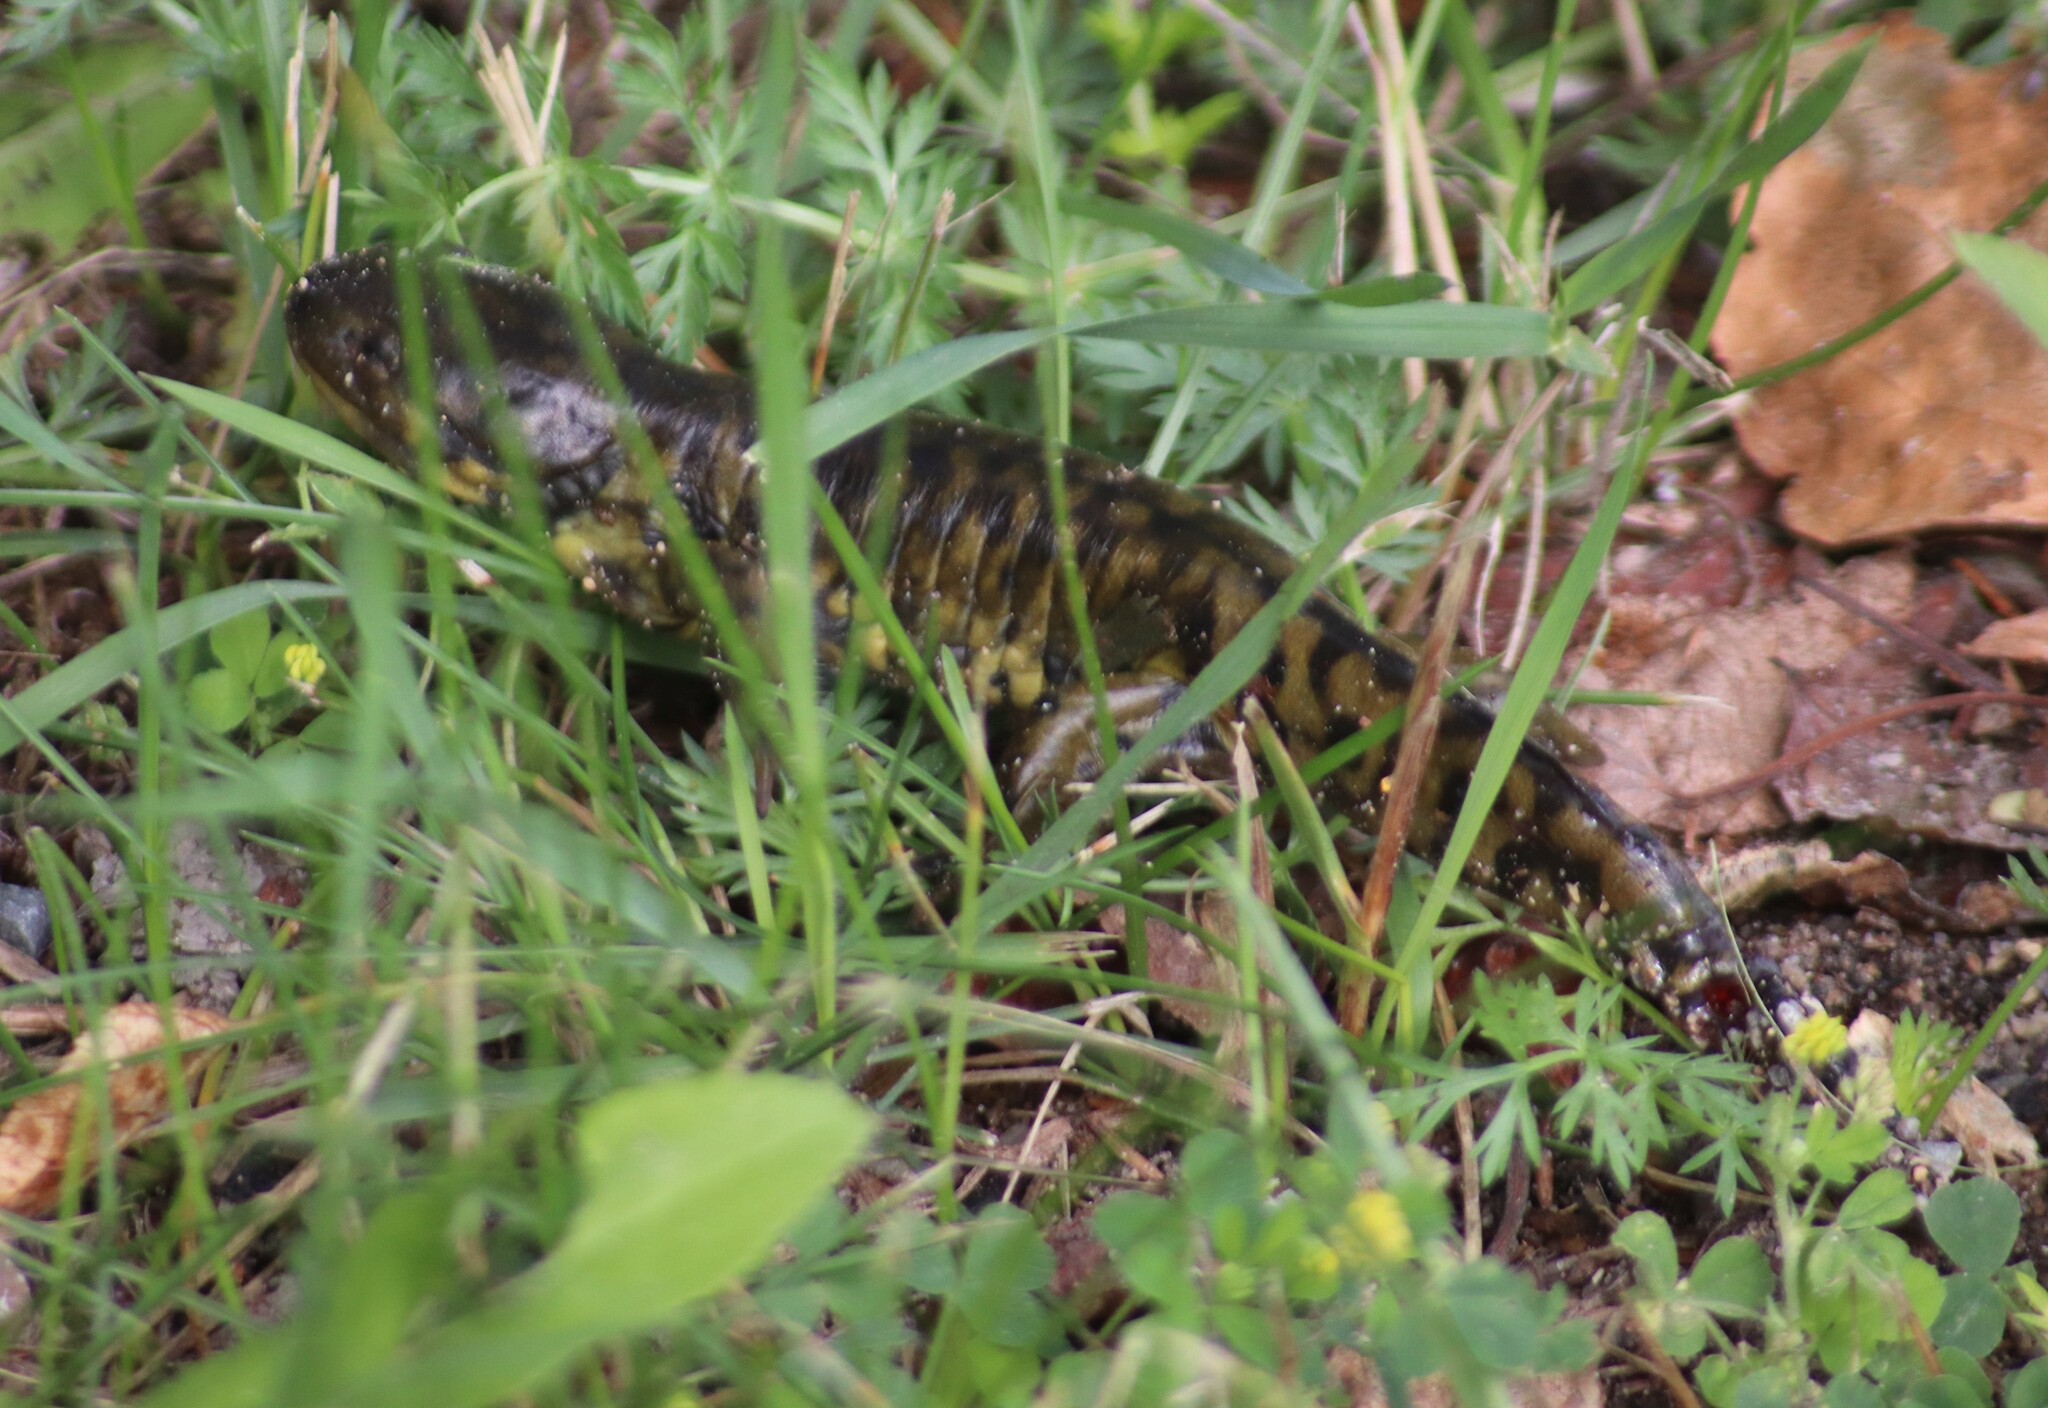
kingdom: Animalia
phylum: Chordata
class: Amphibia
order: Caudata
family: Ambystomatidae
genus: Ambystoma
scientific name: Ambystoma mavortium
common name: Western tiger salamander
